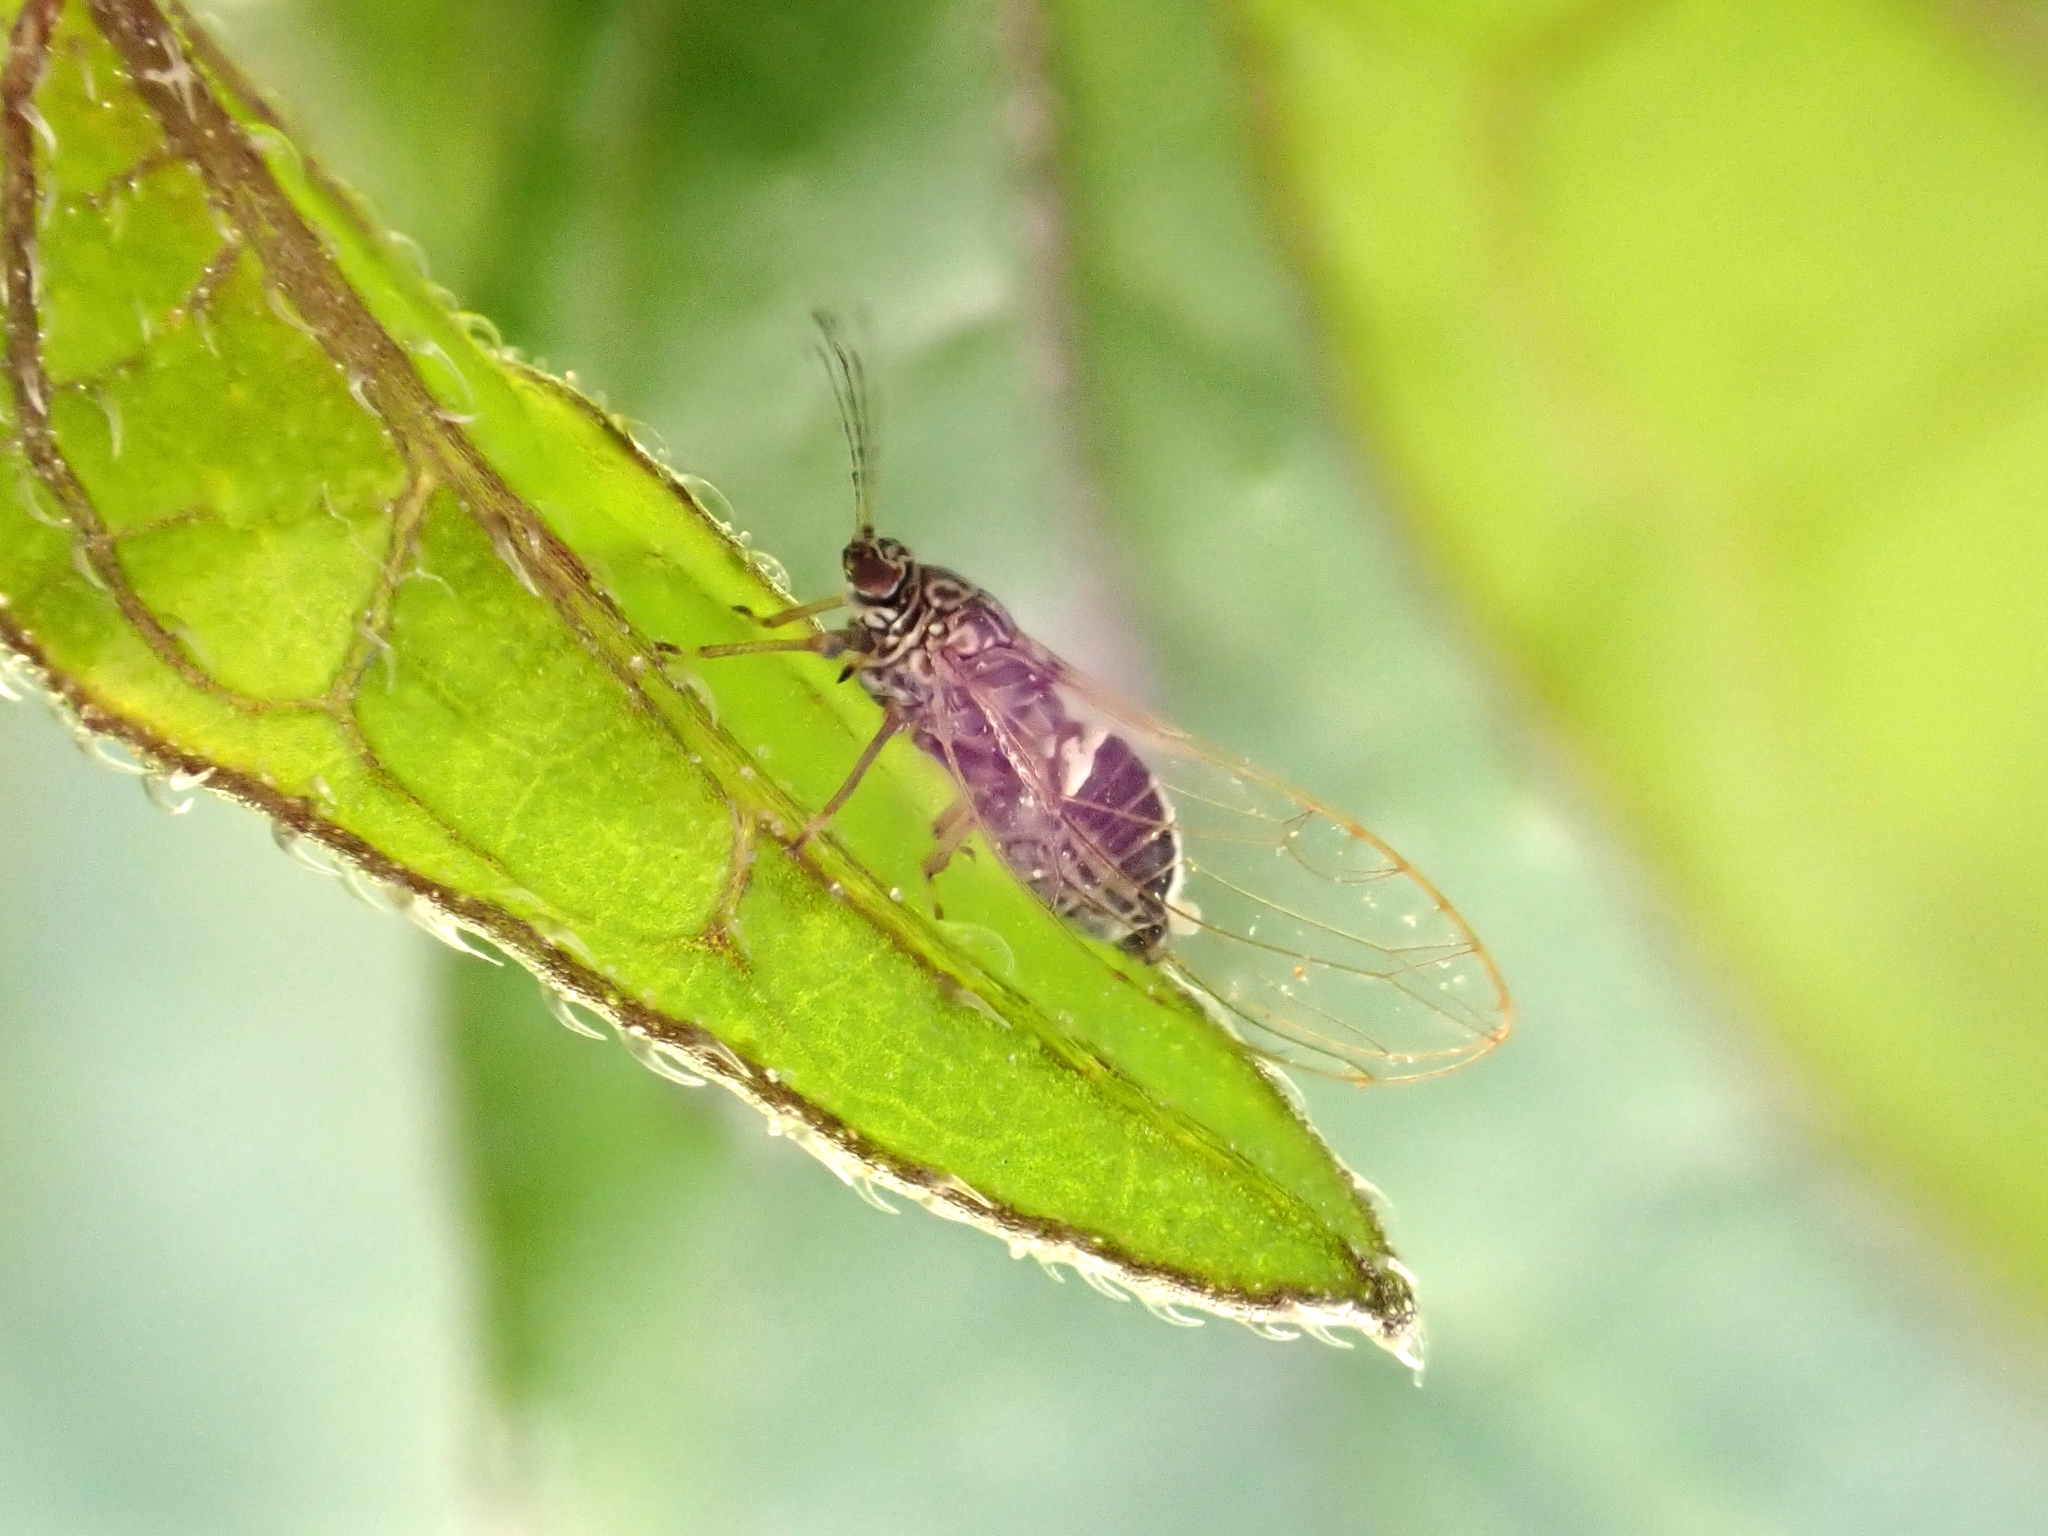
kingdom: Animalia
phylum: Arthropoda
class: Insecta
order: Hemiptera
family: Triozidae
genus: Bactericera
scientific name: Bactericera cockerelli
